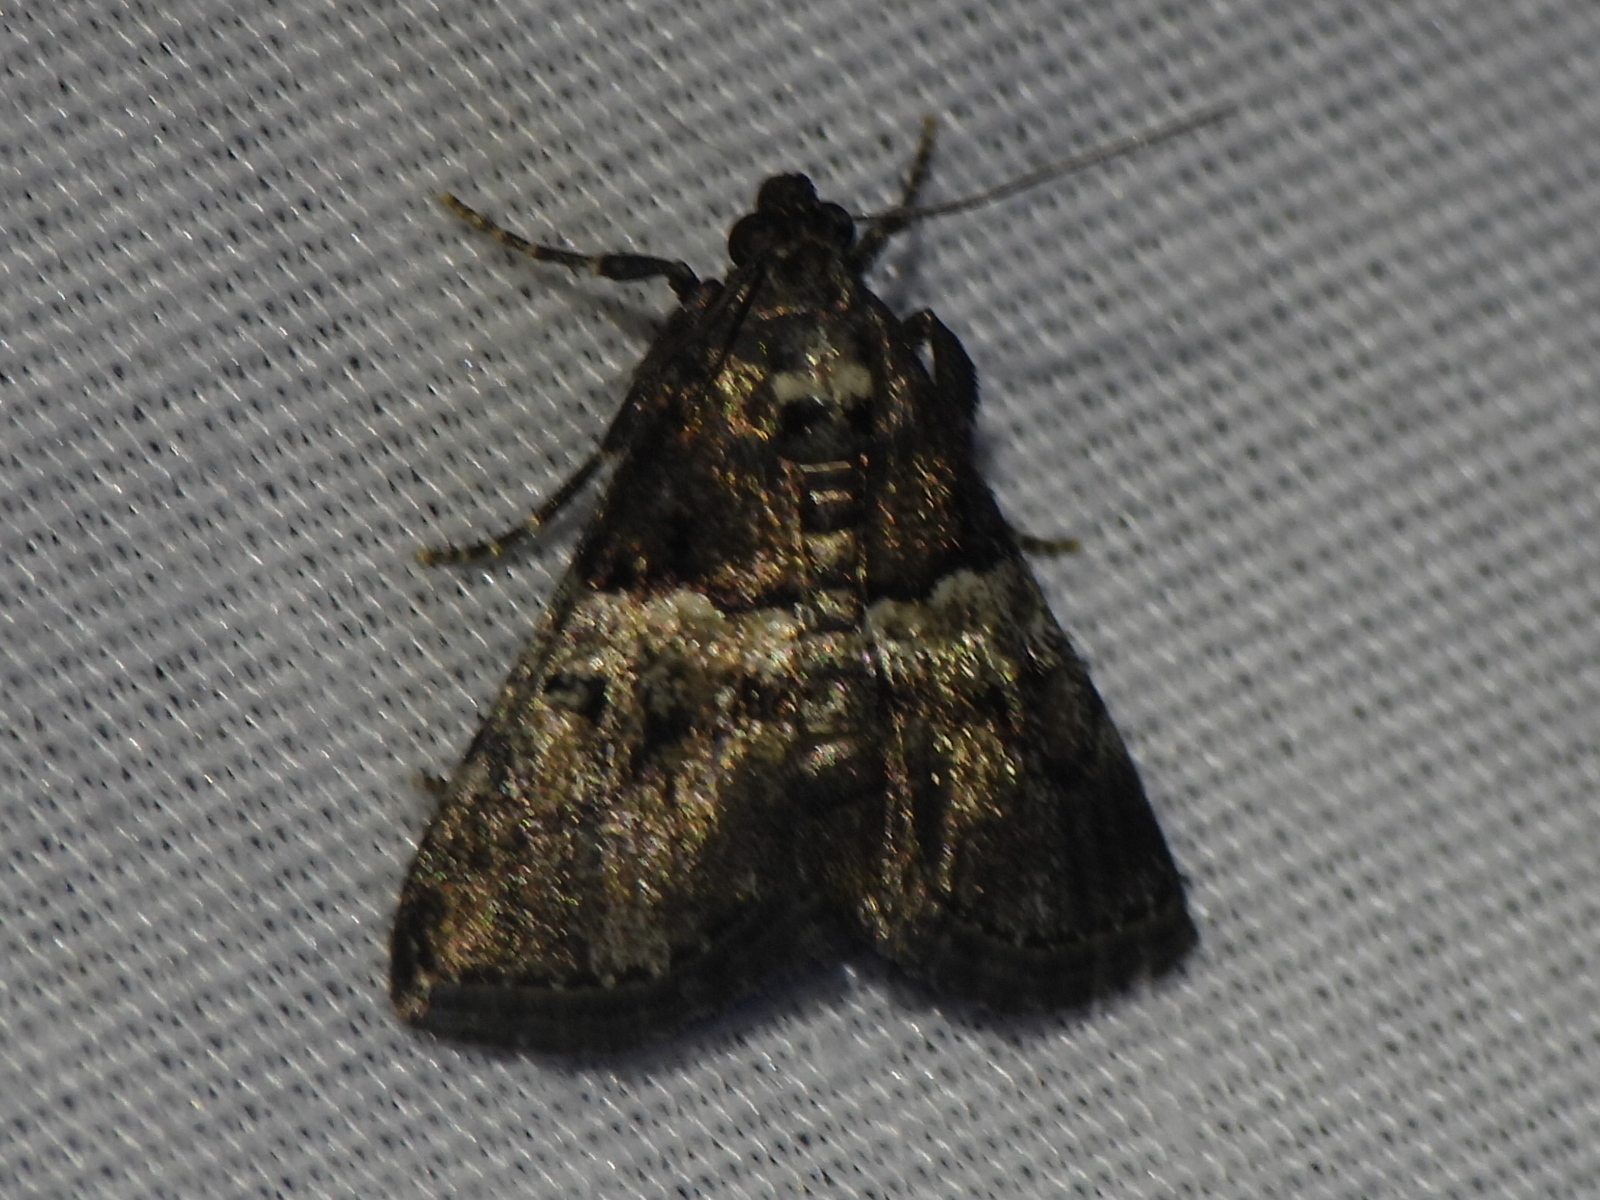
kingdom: Animalia
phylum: Arthropoda
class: Insecta
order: Lepidoptera
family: Pyralidae
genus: Macalla
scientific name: Macalla zelleri
